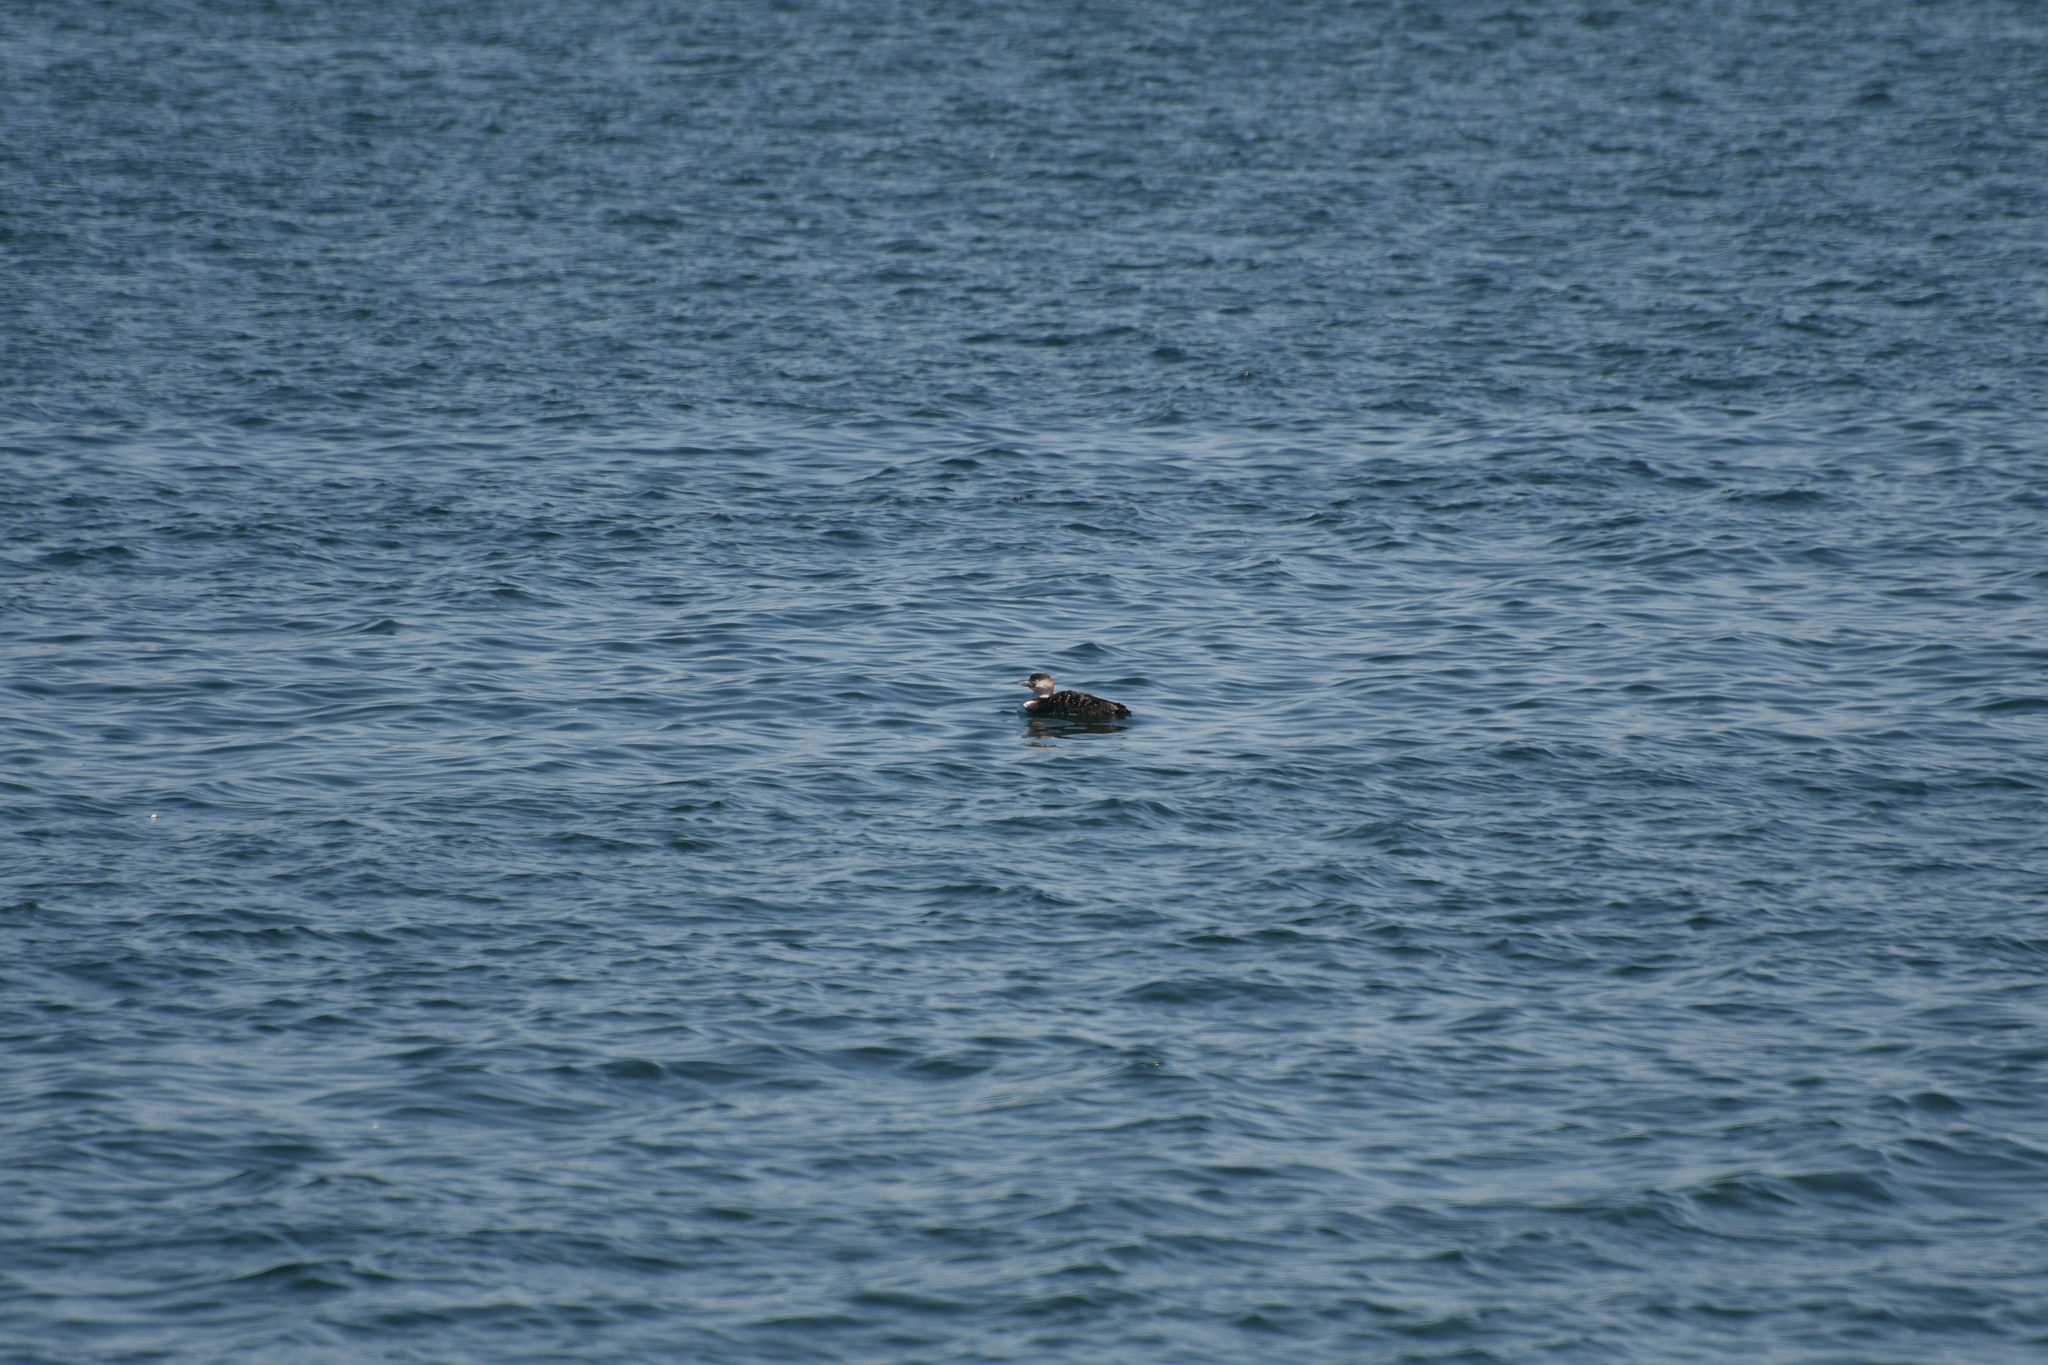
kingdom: Animalia
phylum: Chordata
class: Aves
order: Gaviiformes
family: Gaviidae
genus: Gavia
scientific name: Gavia immer
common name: Common loon
